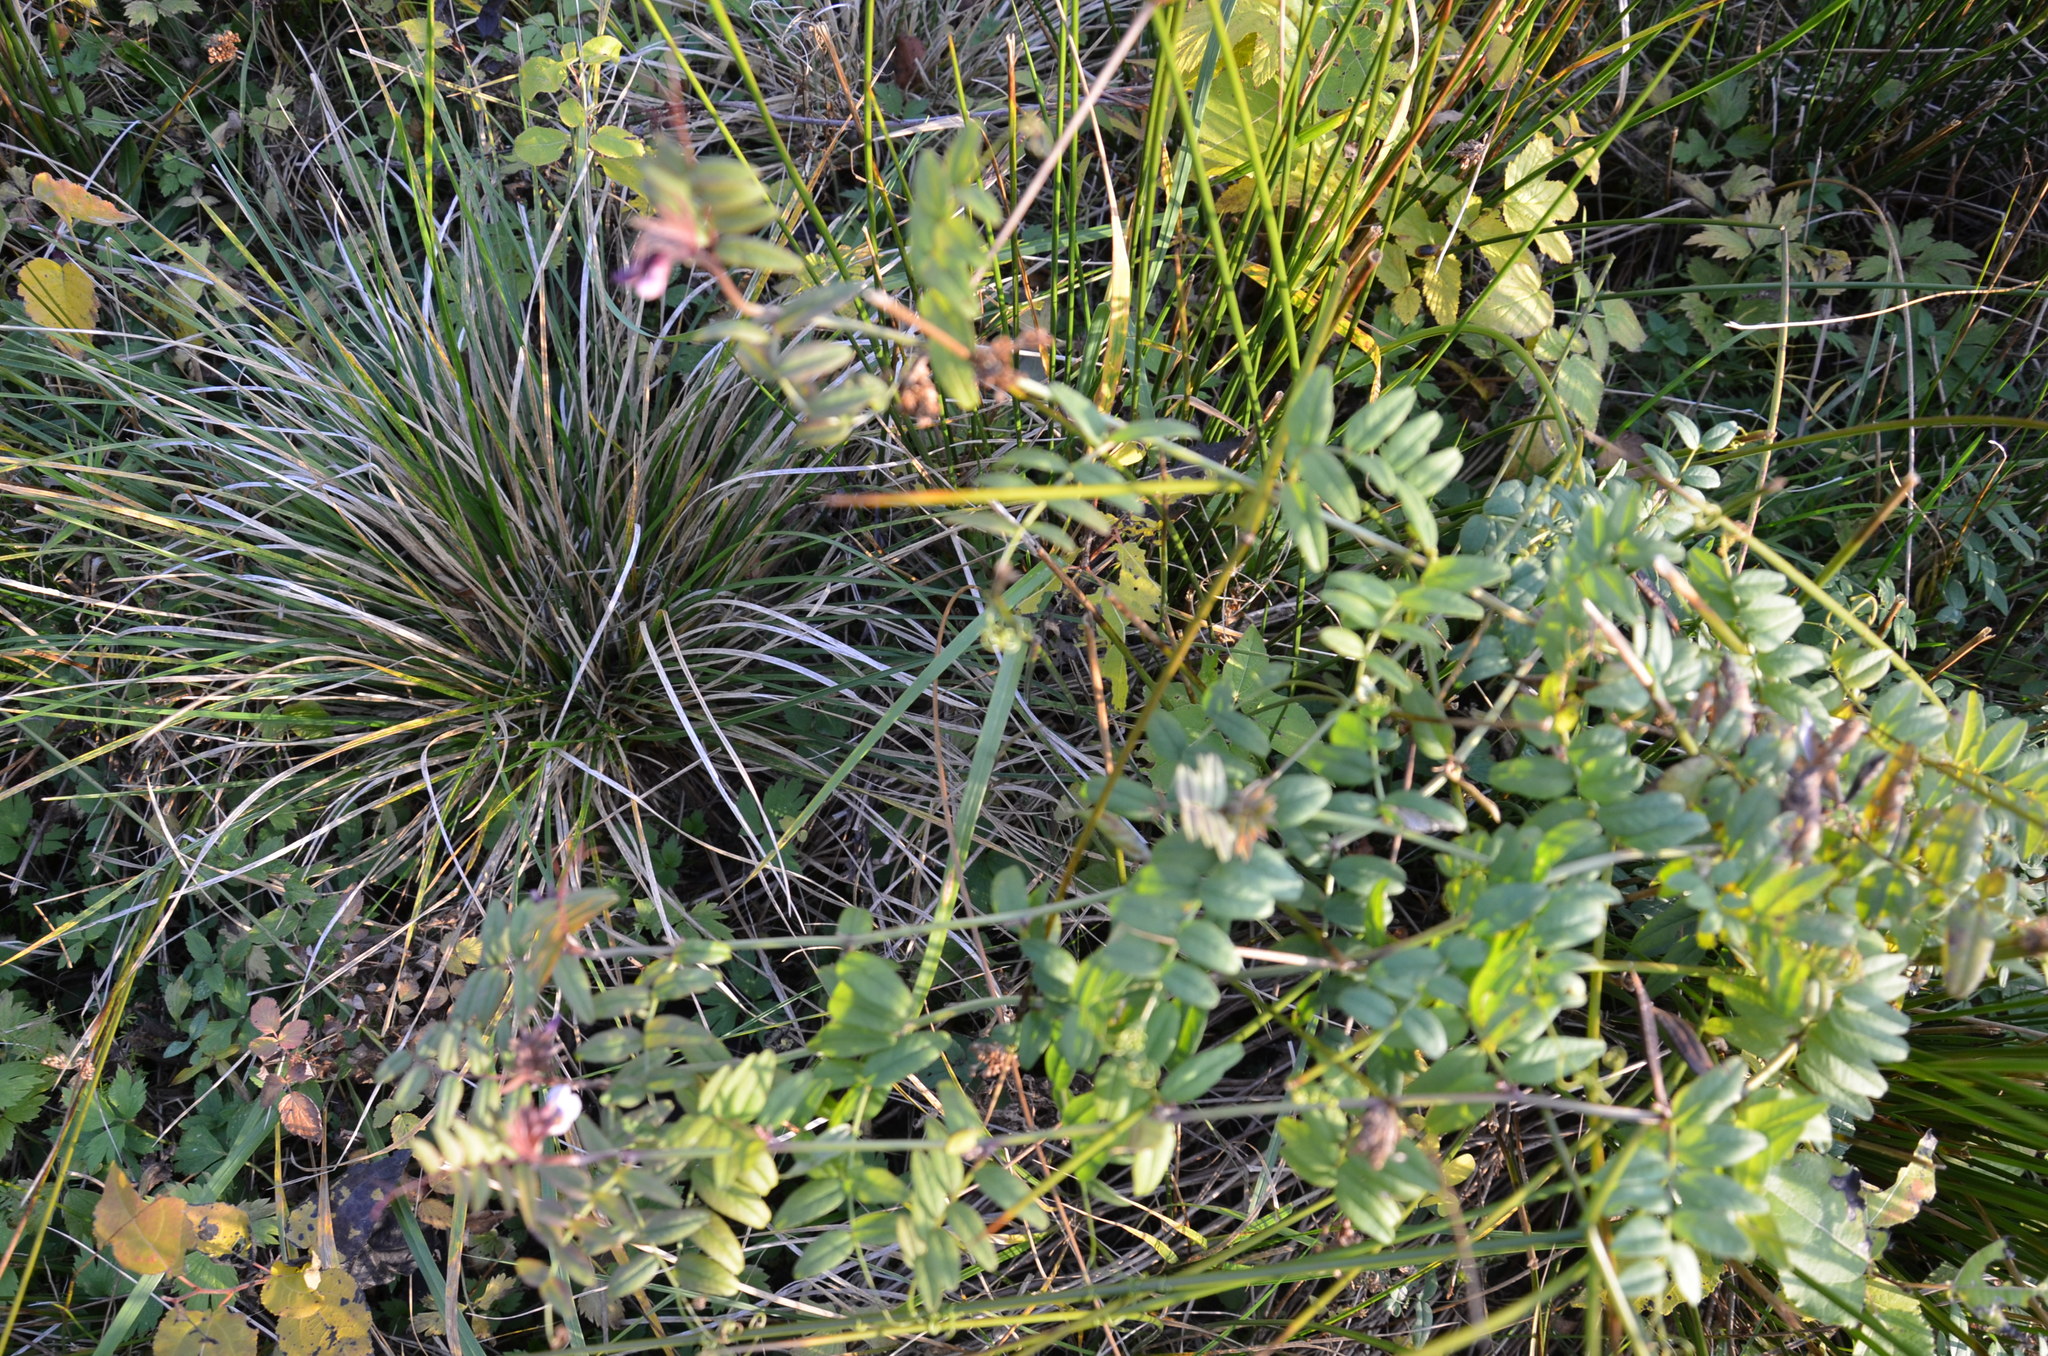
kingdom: Plantae
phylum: Tracheophyta
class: Magnoliopsida
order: Fabales
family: Fabaceae
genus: Vicia
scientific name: Vicia sepium
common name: Bush vetch
